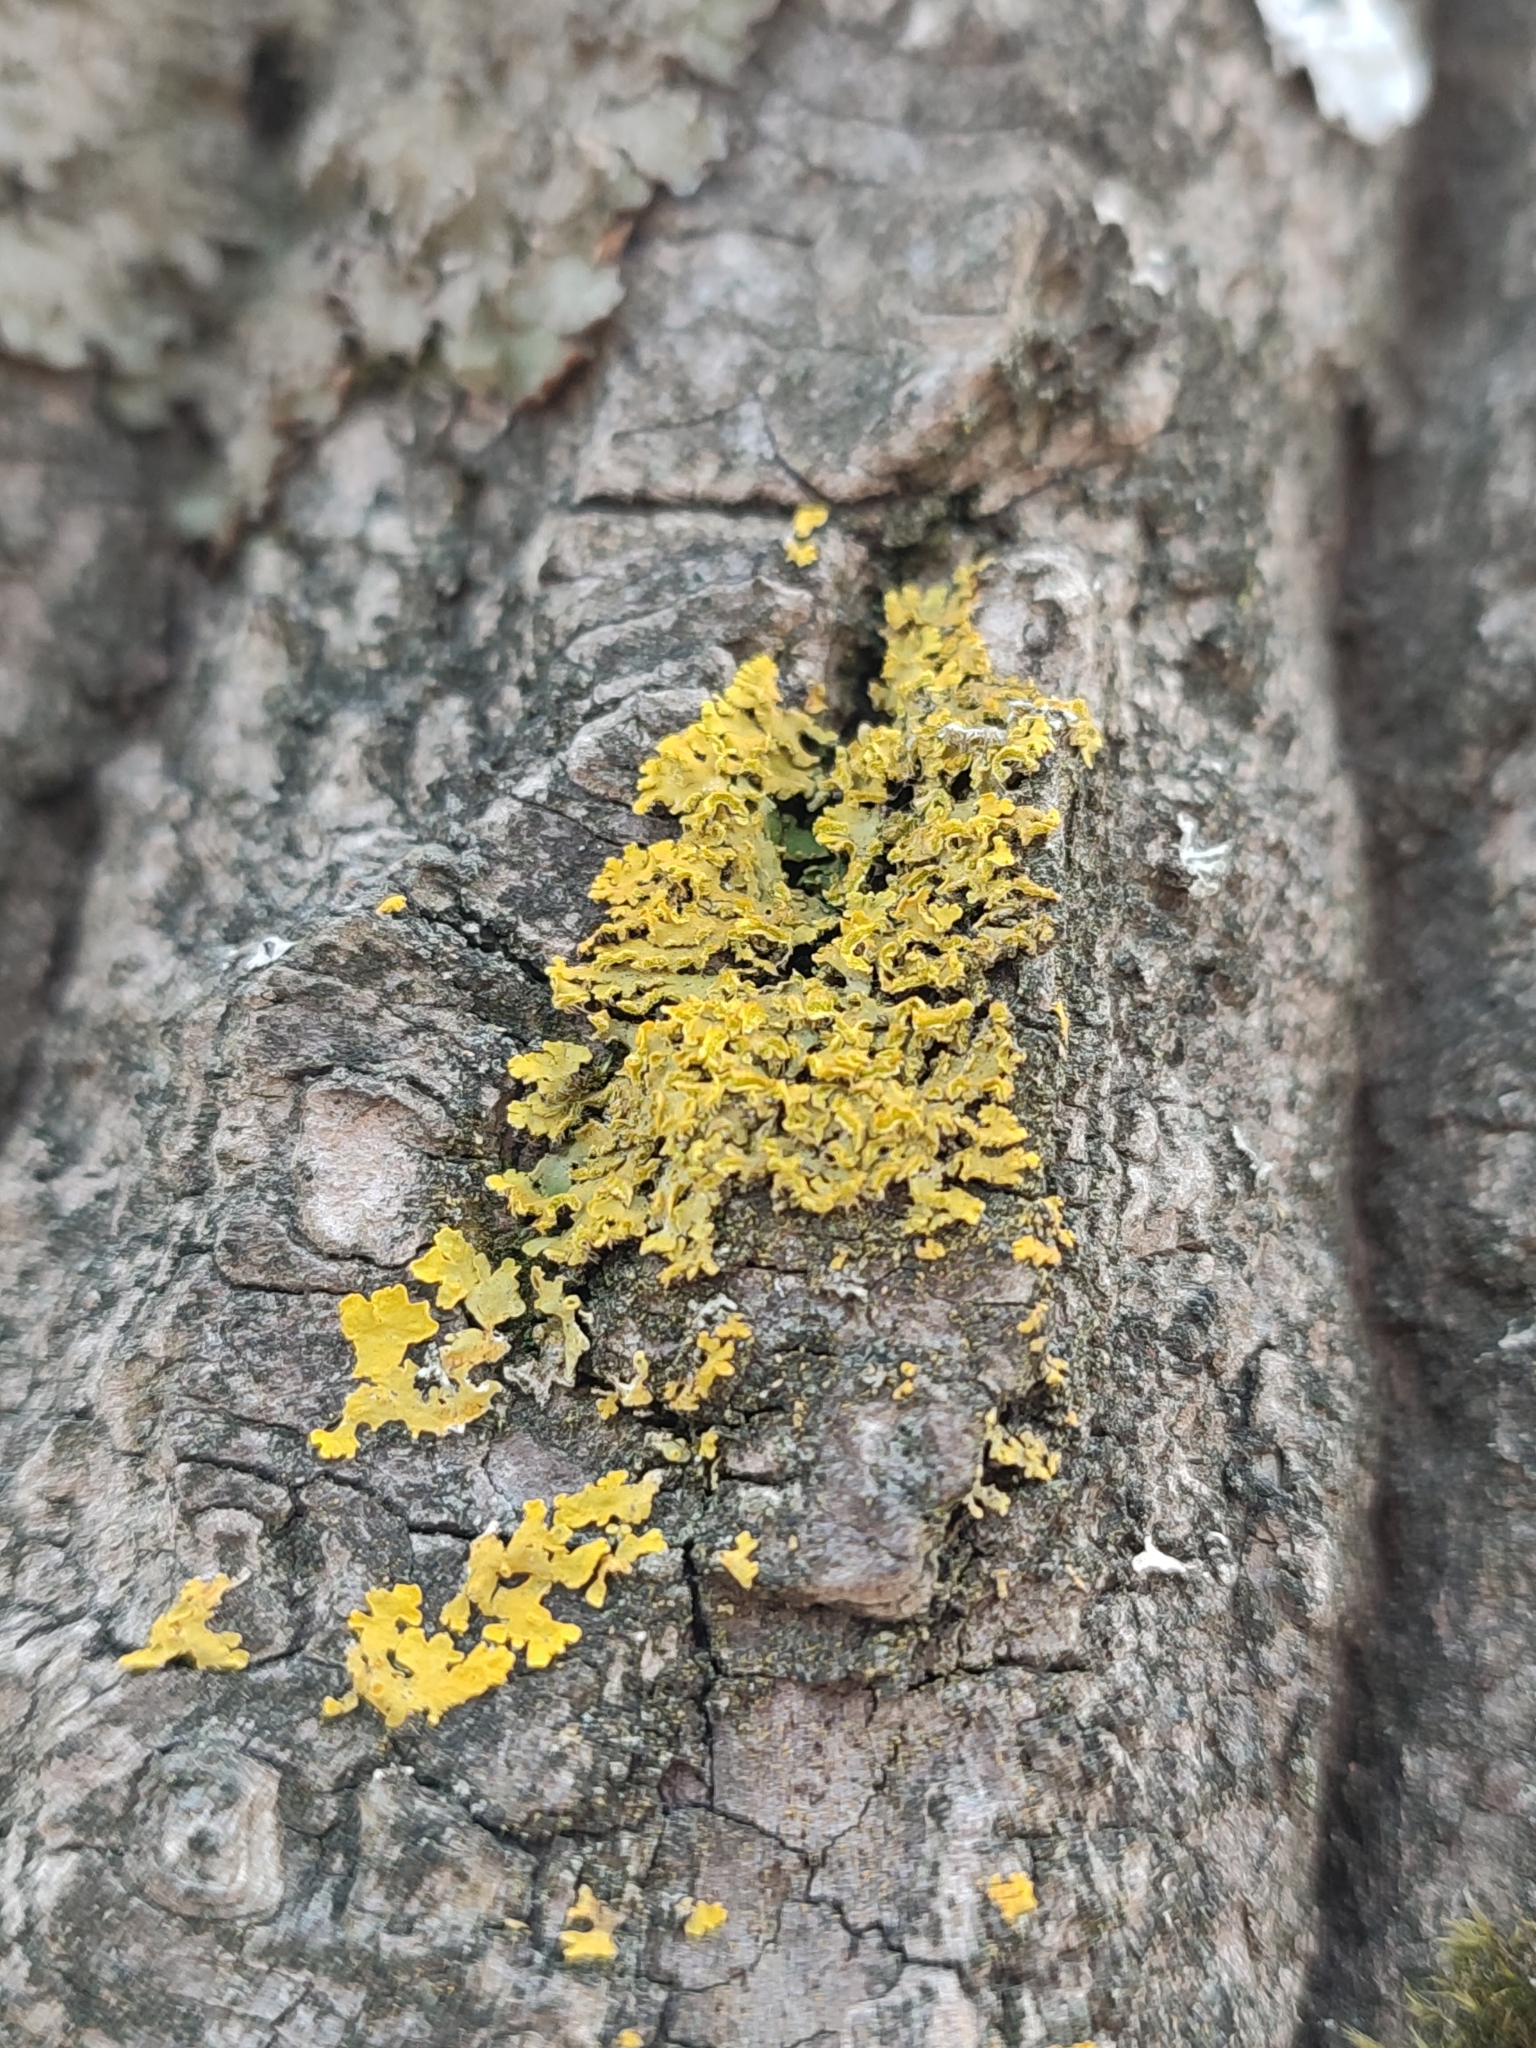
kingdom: Fungi
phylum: Ascomycota
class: Lecanoromycetes
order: Teloschistales
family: Teloschistaceae
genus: Xanthomendoza
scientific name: Xanthomendoza huculica
